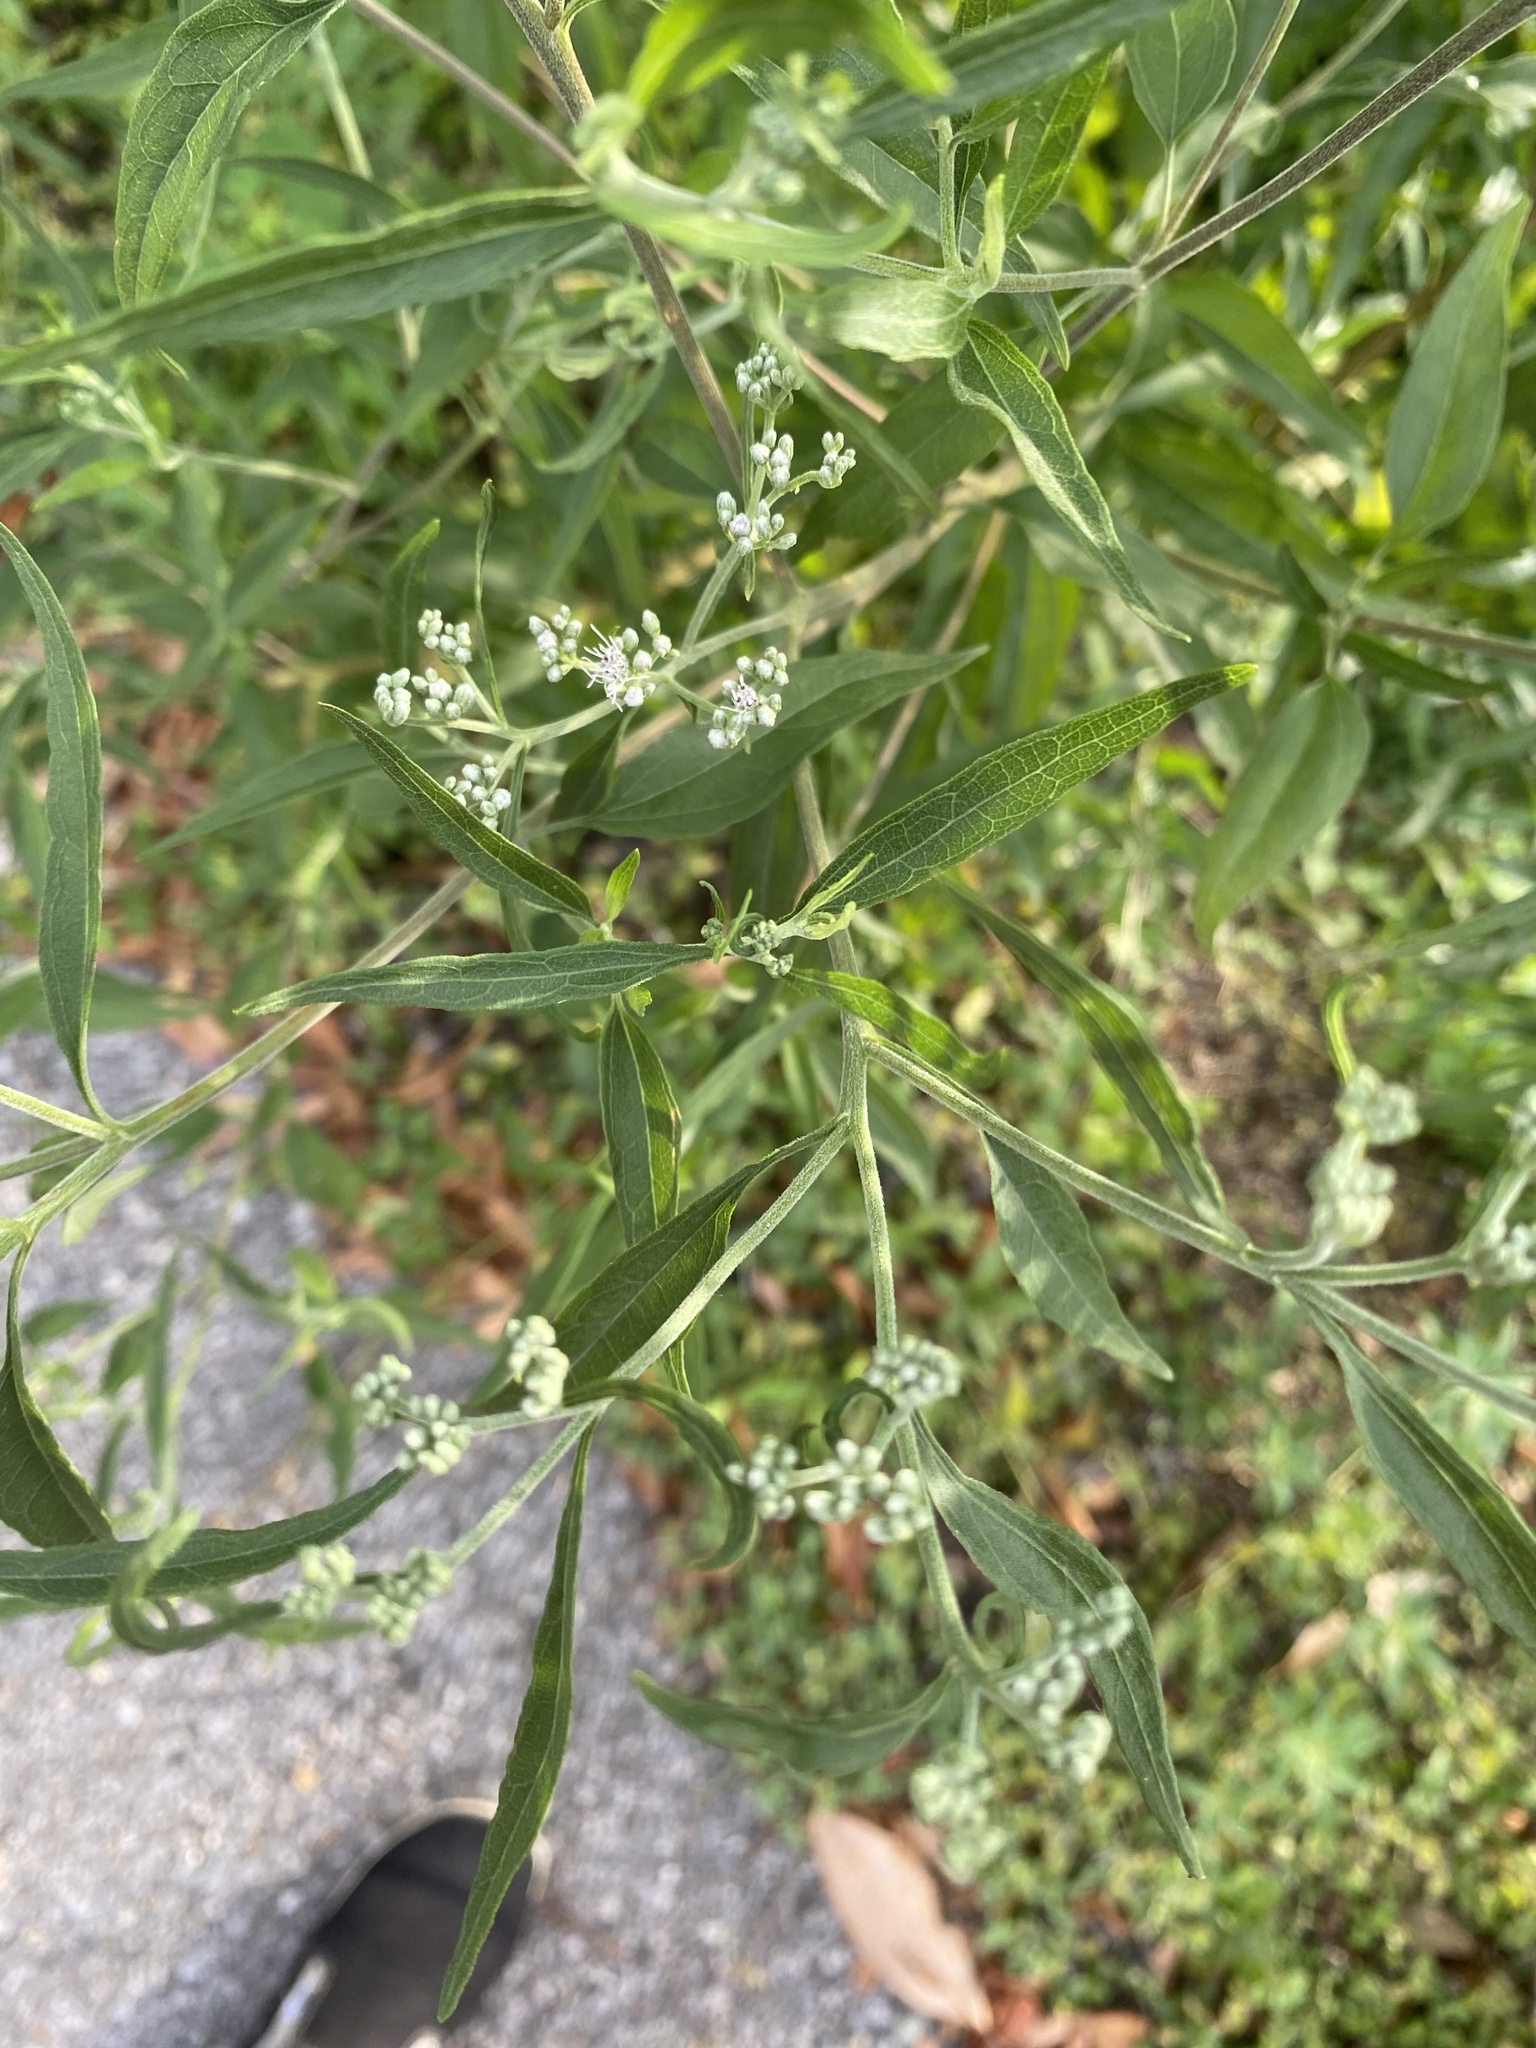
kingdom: Plantae
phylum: Tracheophyta
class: Magnoliopsida
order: Asterales
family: Asteraceae
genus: Eupatorium
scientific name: Eupatorium serotinum
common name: Late boneset
